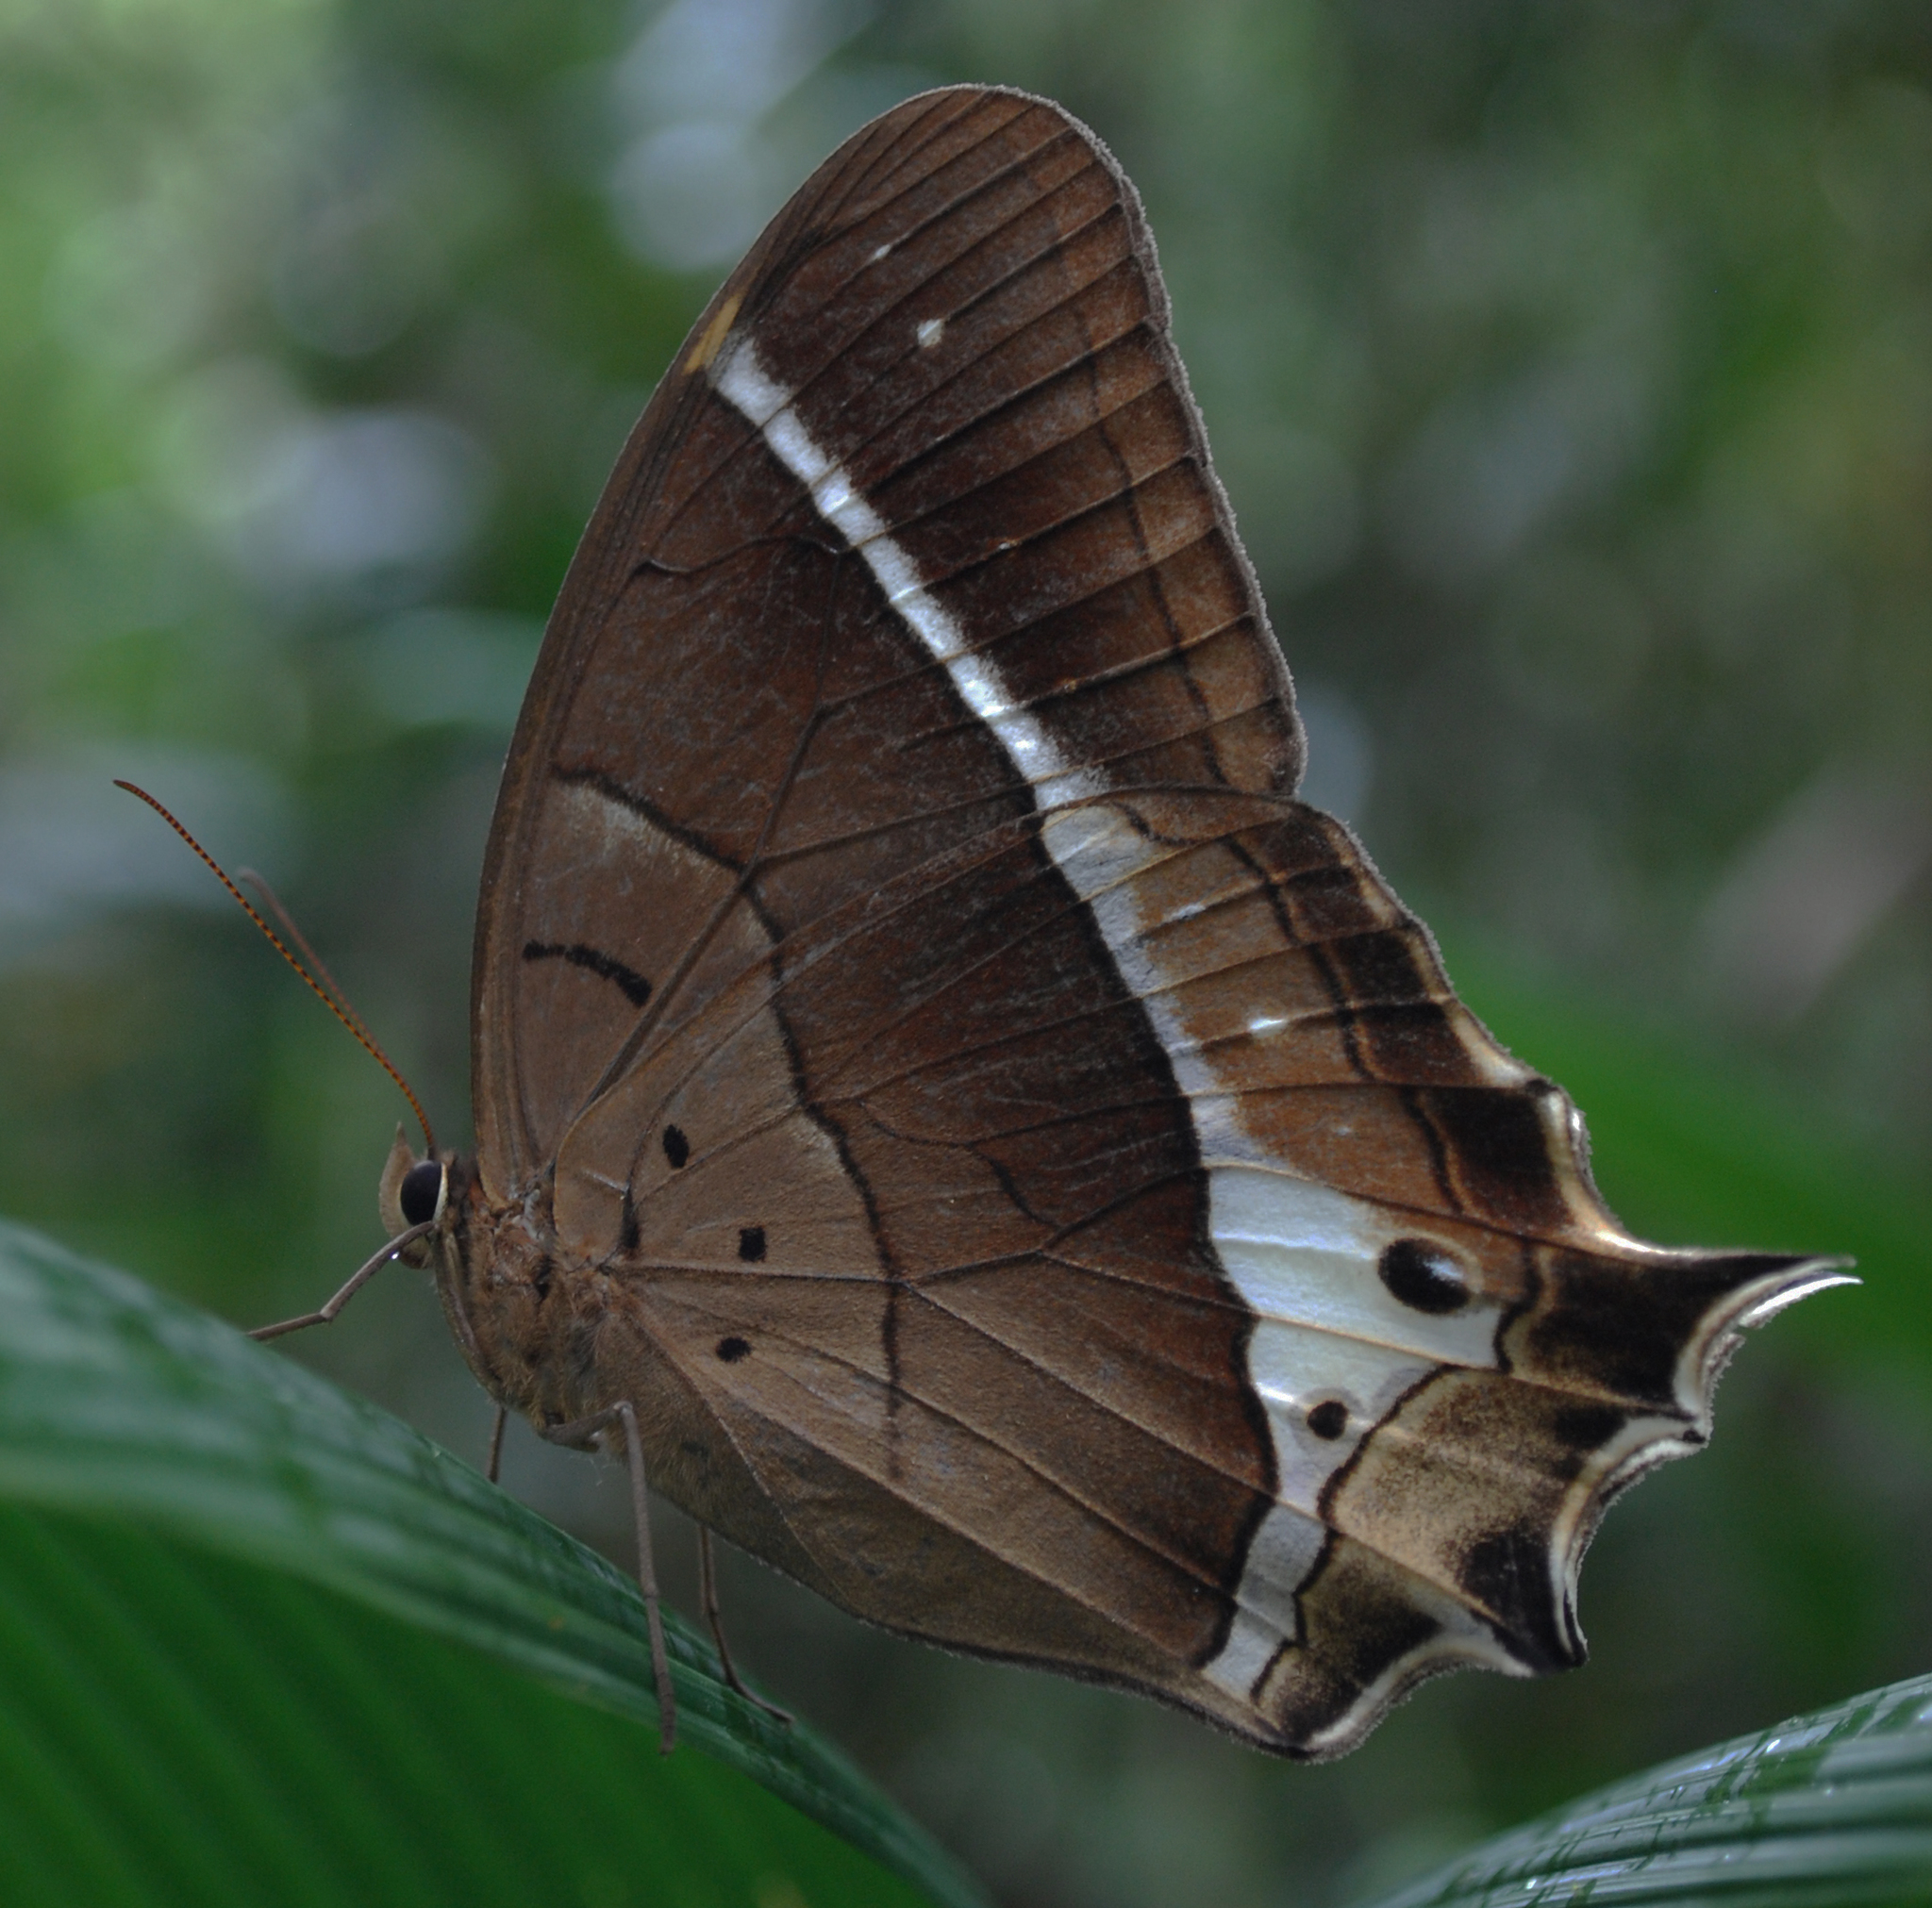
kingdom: Animalia
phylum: Arthropoda
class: Insecta
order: Lepidoptera
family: Nymphalidae
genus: Antirrhea
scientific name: Antirrhea philaretes
